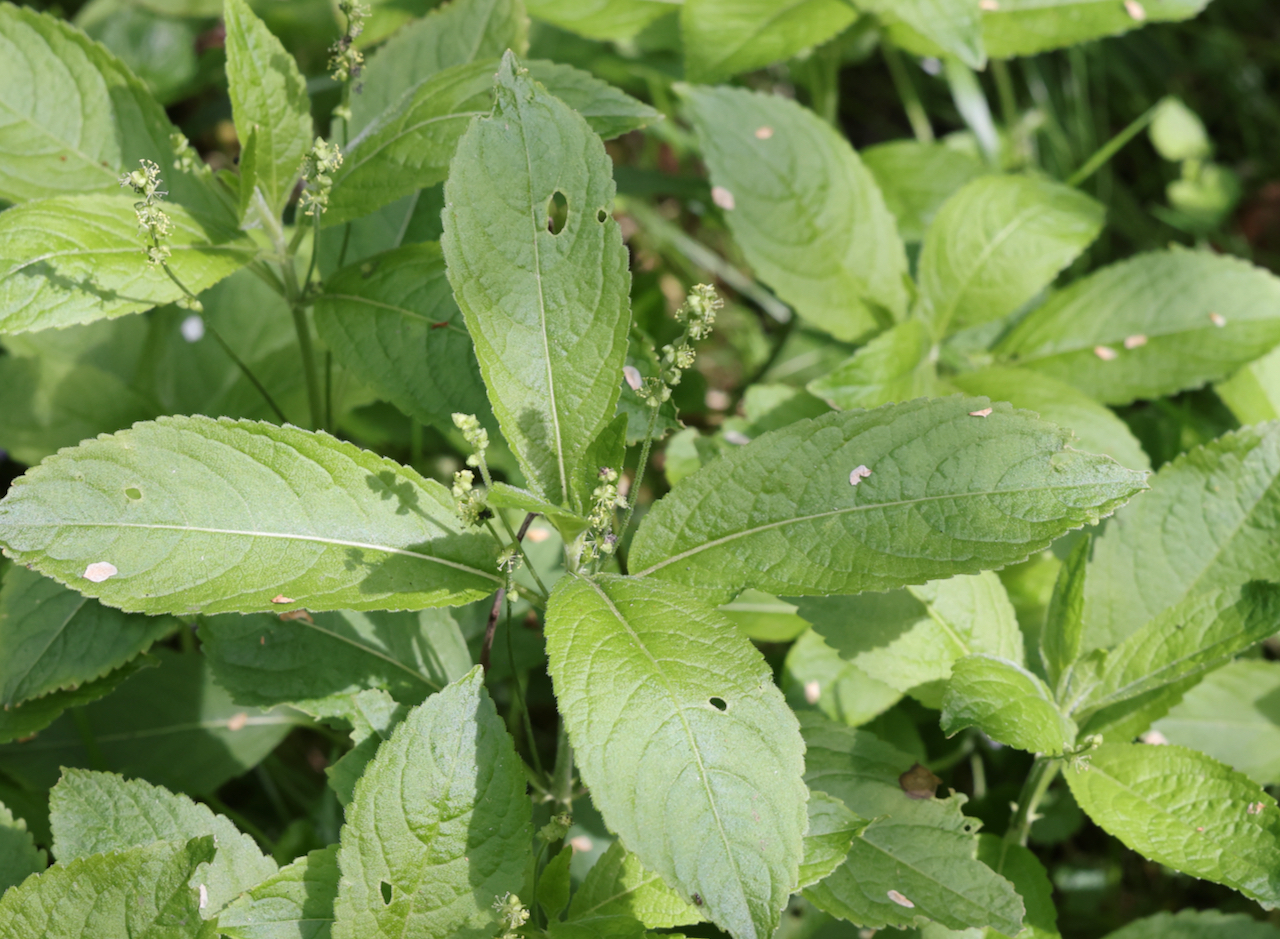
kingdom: Plantae
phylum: Tracheophyta
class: Magnoliopsida
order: Malpighiales
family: Euphorbiaceae
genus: Mercurialis
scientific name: Mercurialis perennis
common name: Dog mercury
